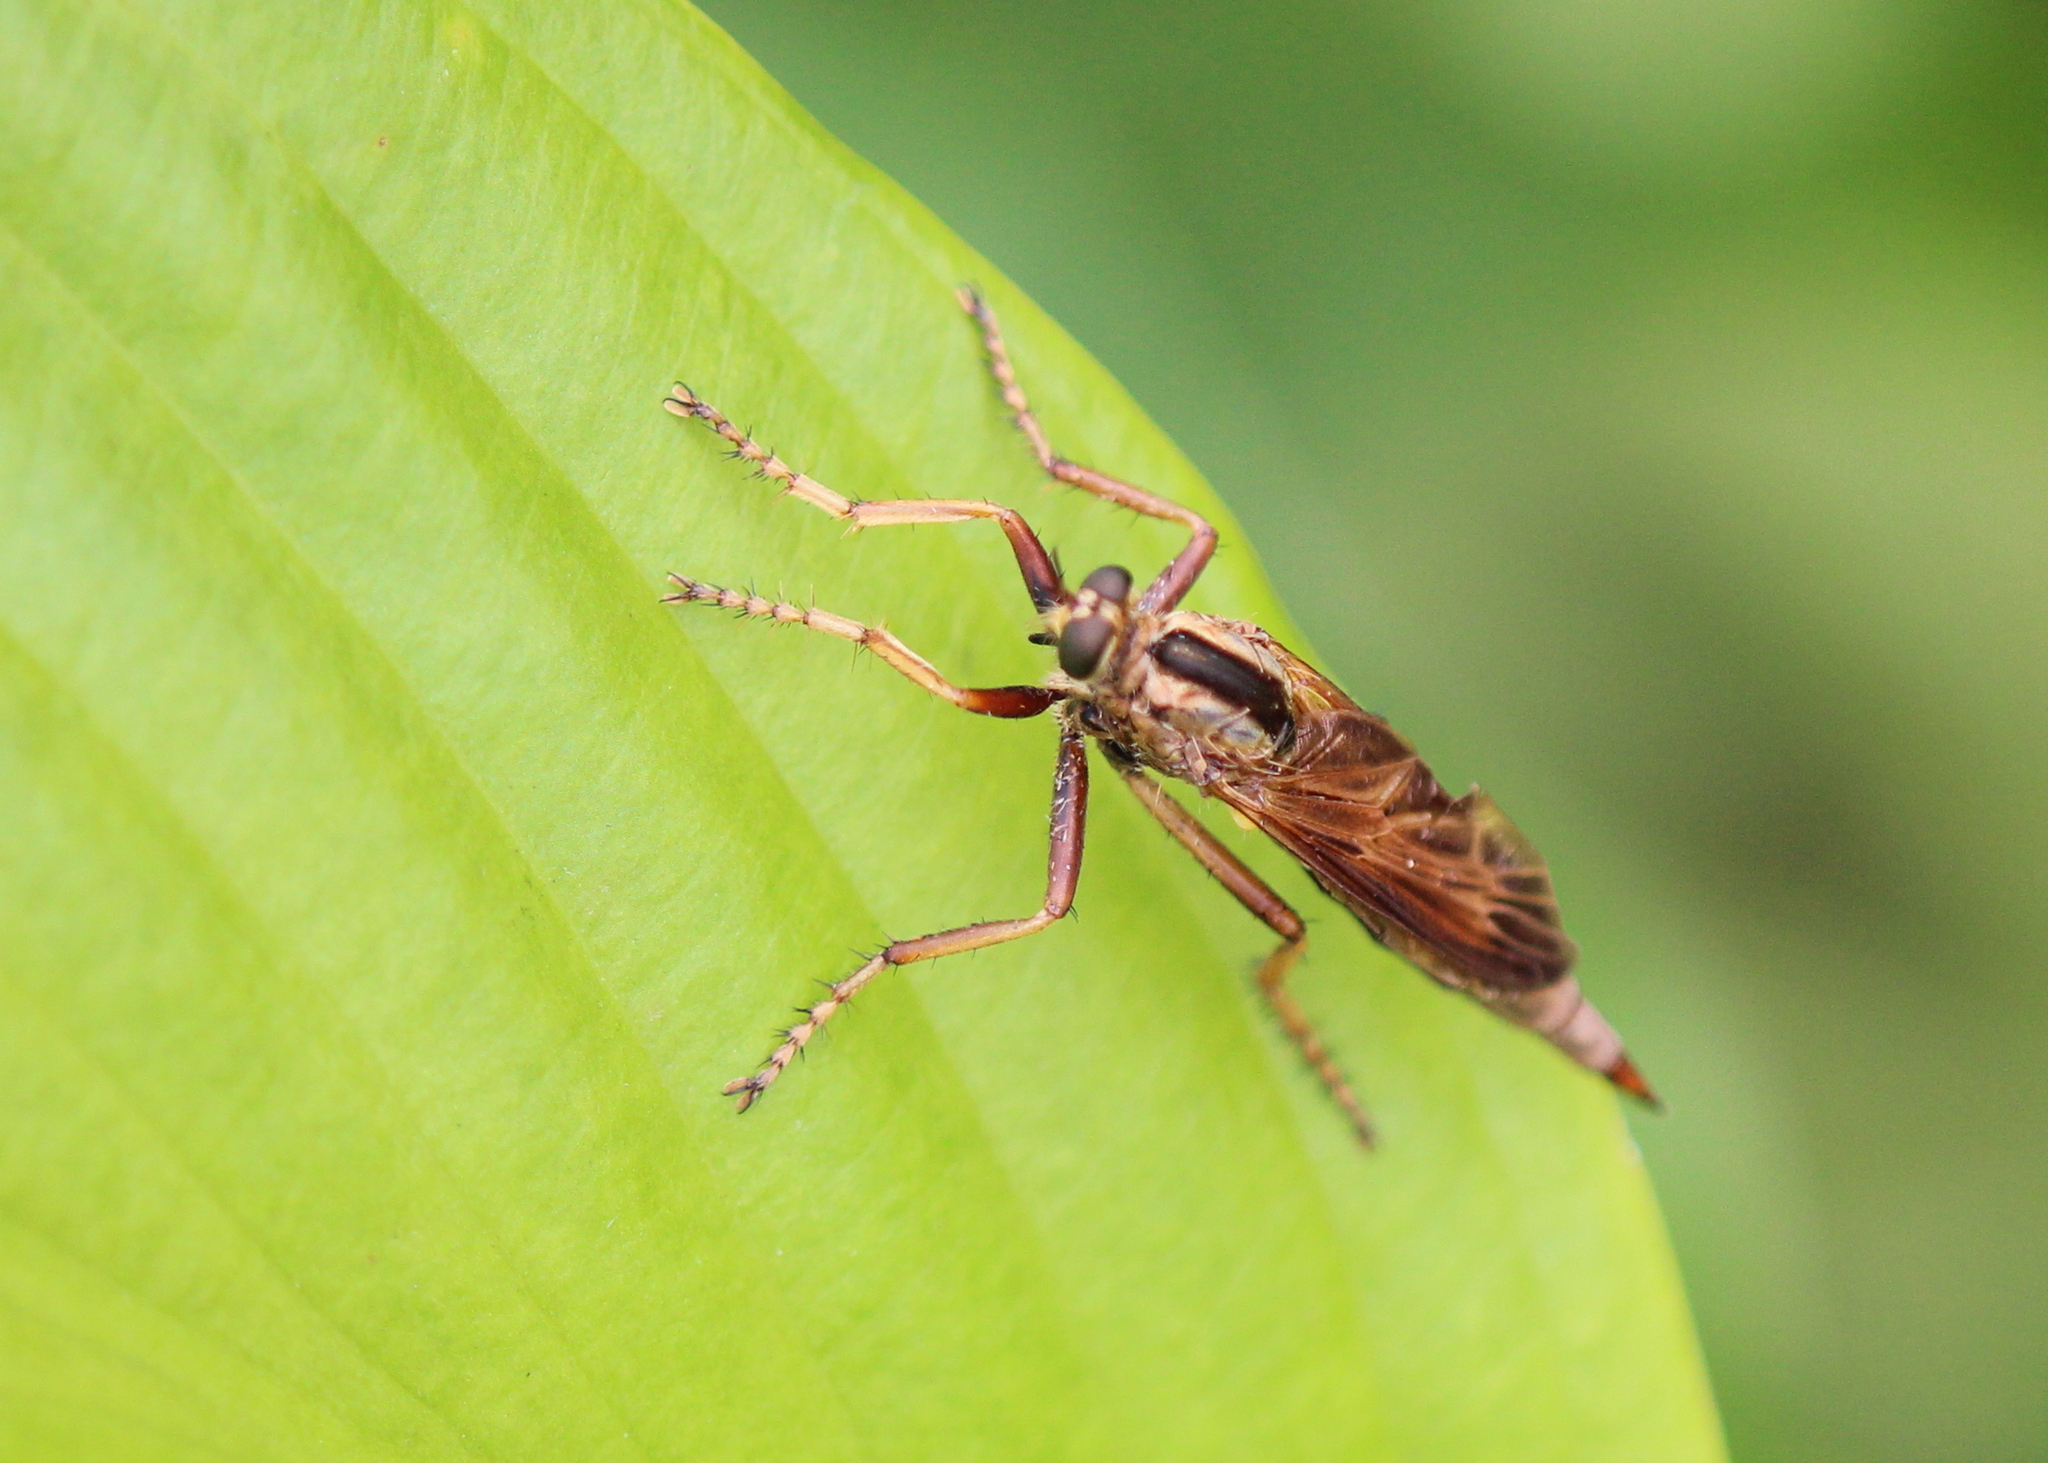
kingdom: Animalia
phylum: Arthropoda
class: Insecta
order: Diptera
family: Asilidae
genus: Asilus
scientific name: Asilus sericeus
